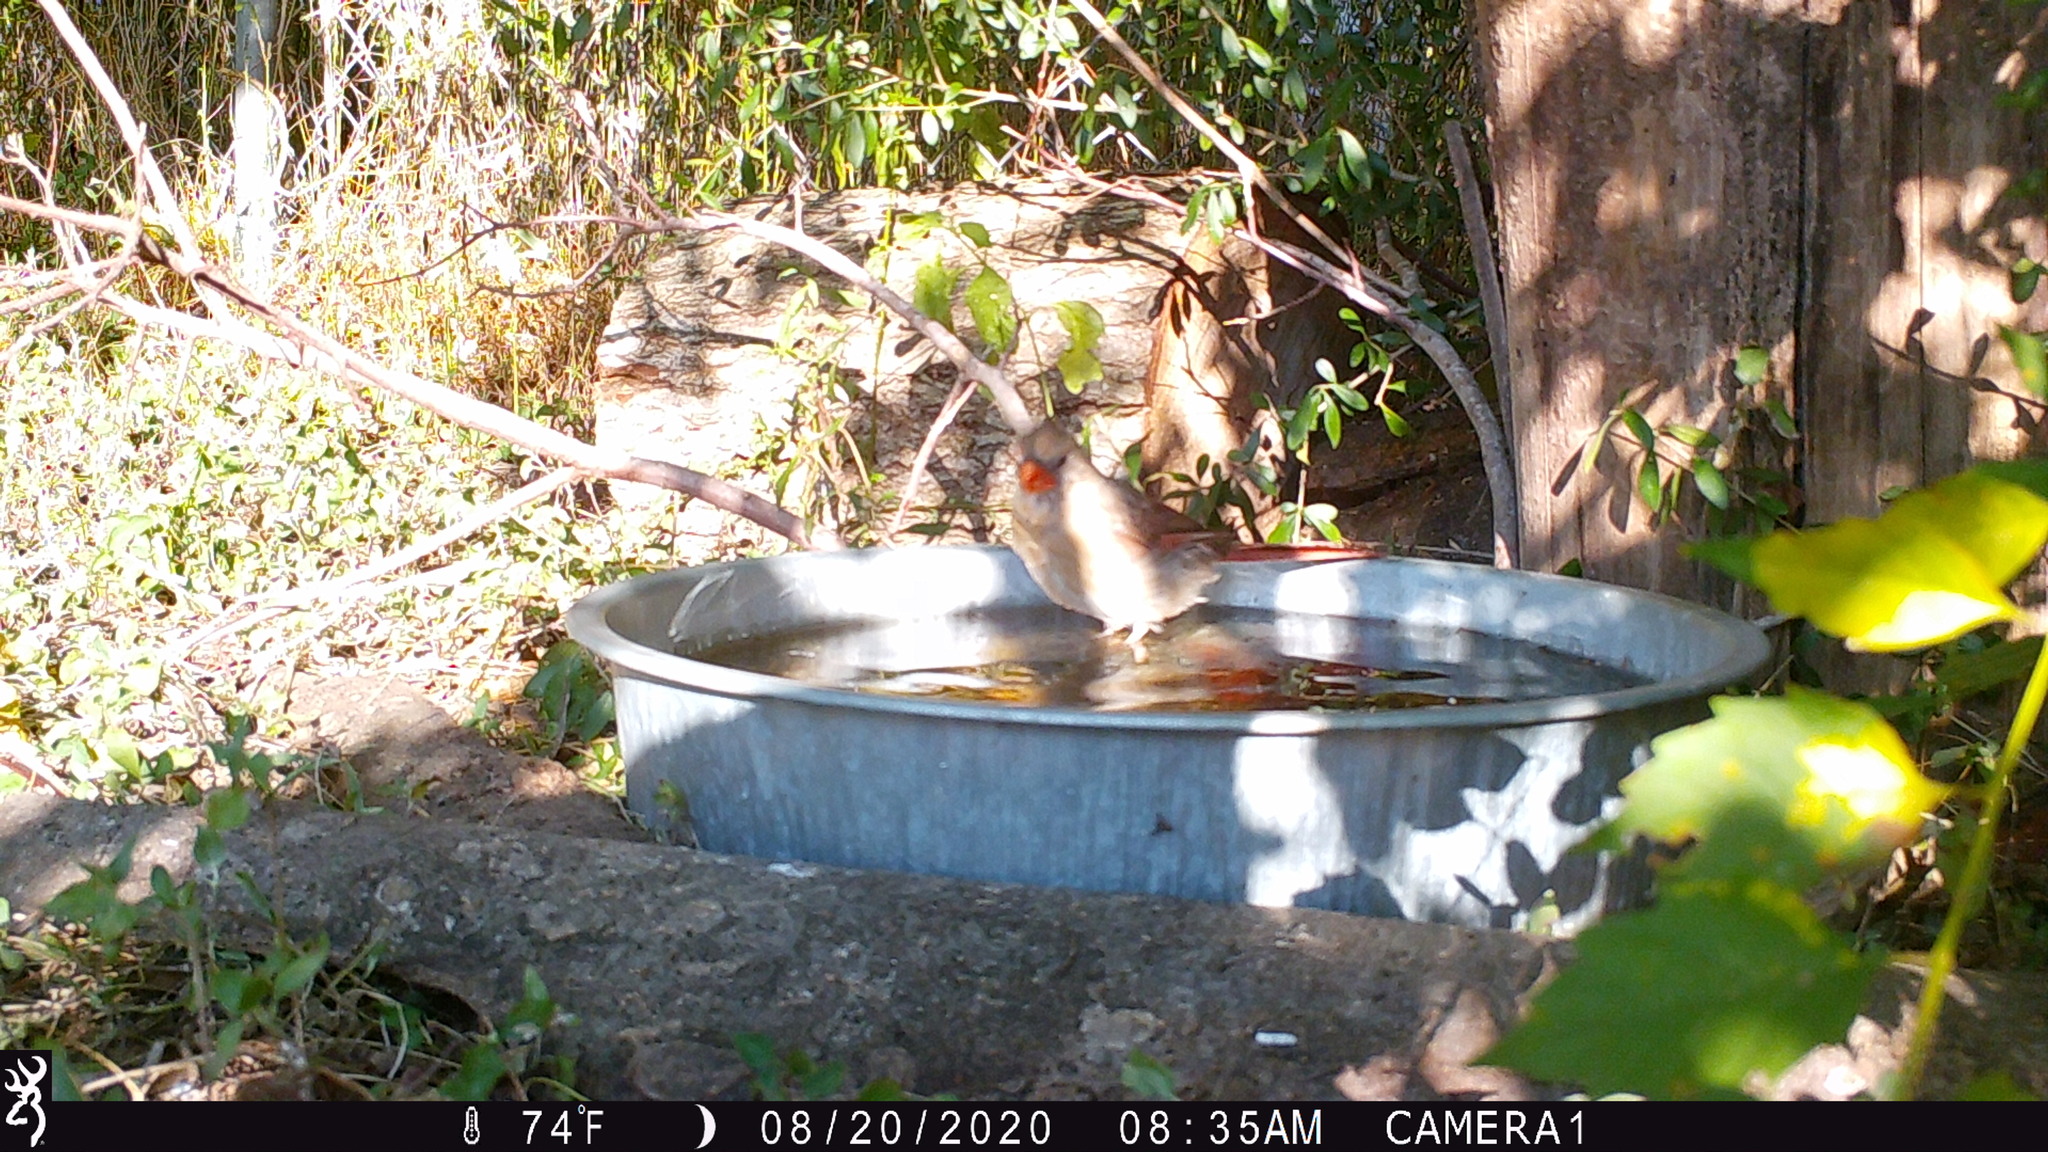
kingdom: Animalia
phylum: Chordata
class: Aves
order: Passeriformes
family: Cardinalidae
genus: Cardinalis
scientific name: Cardinalis cardinalis
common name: Northern cardinal
